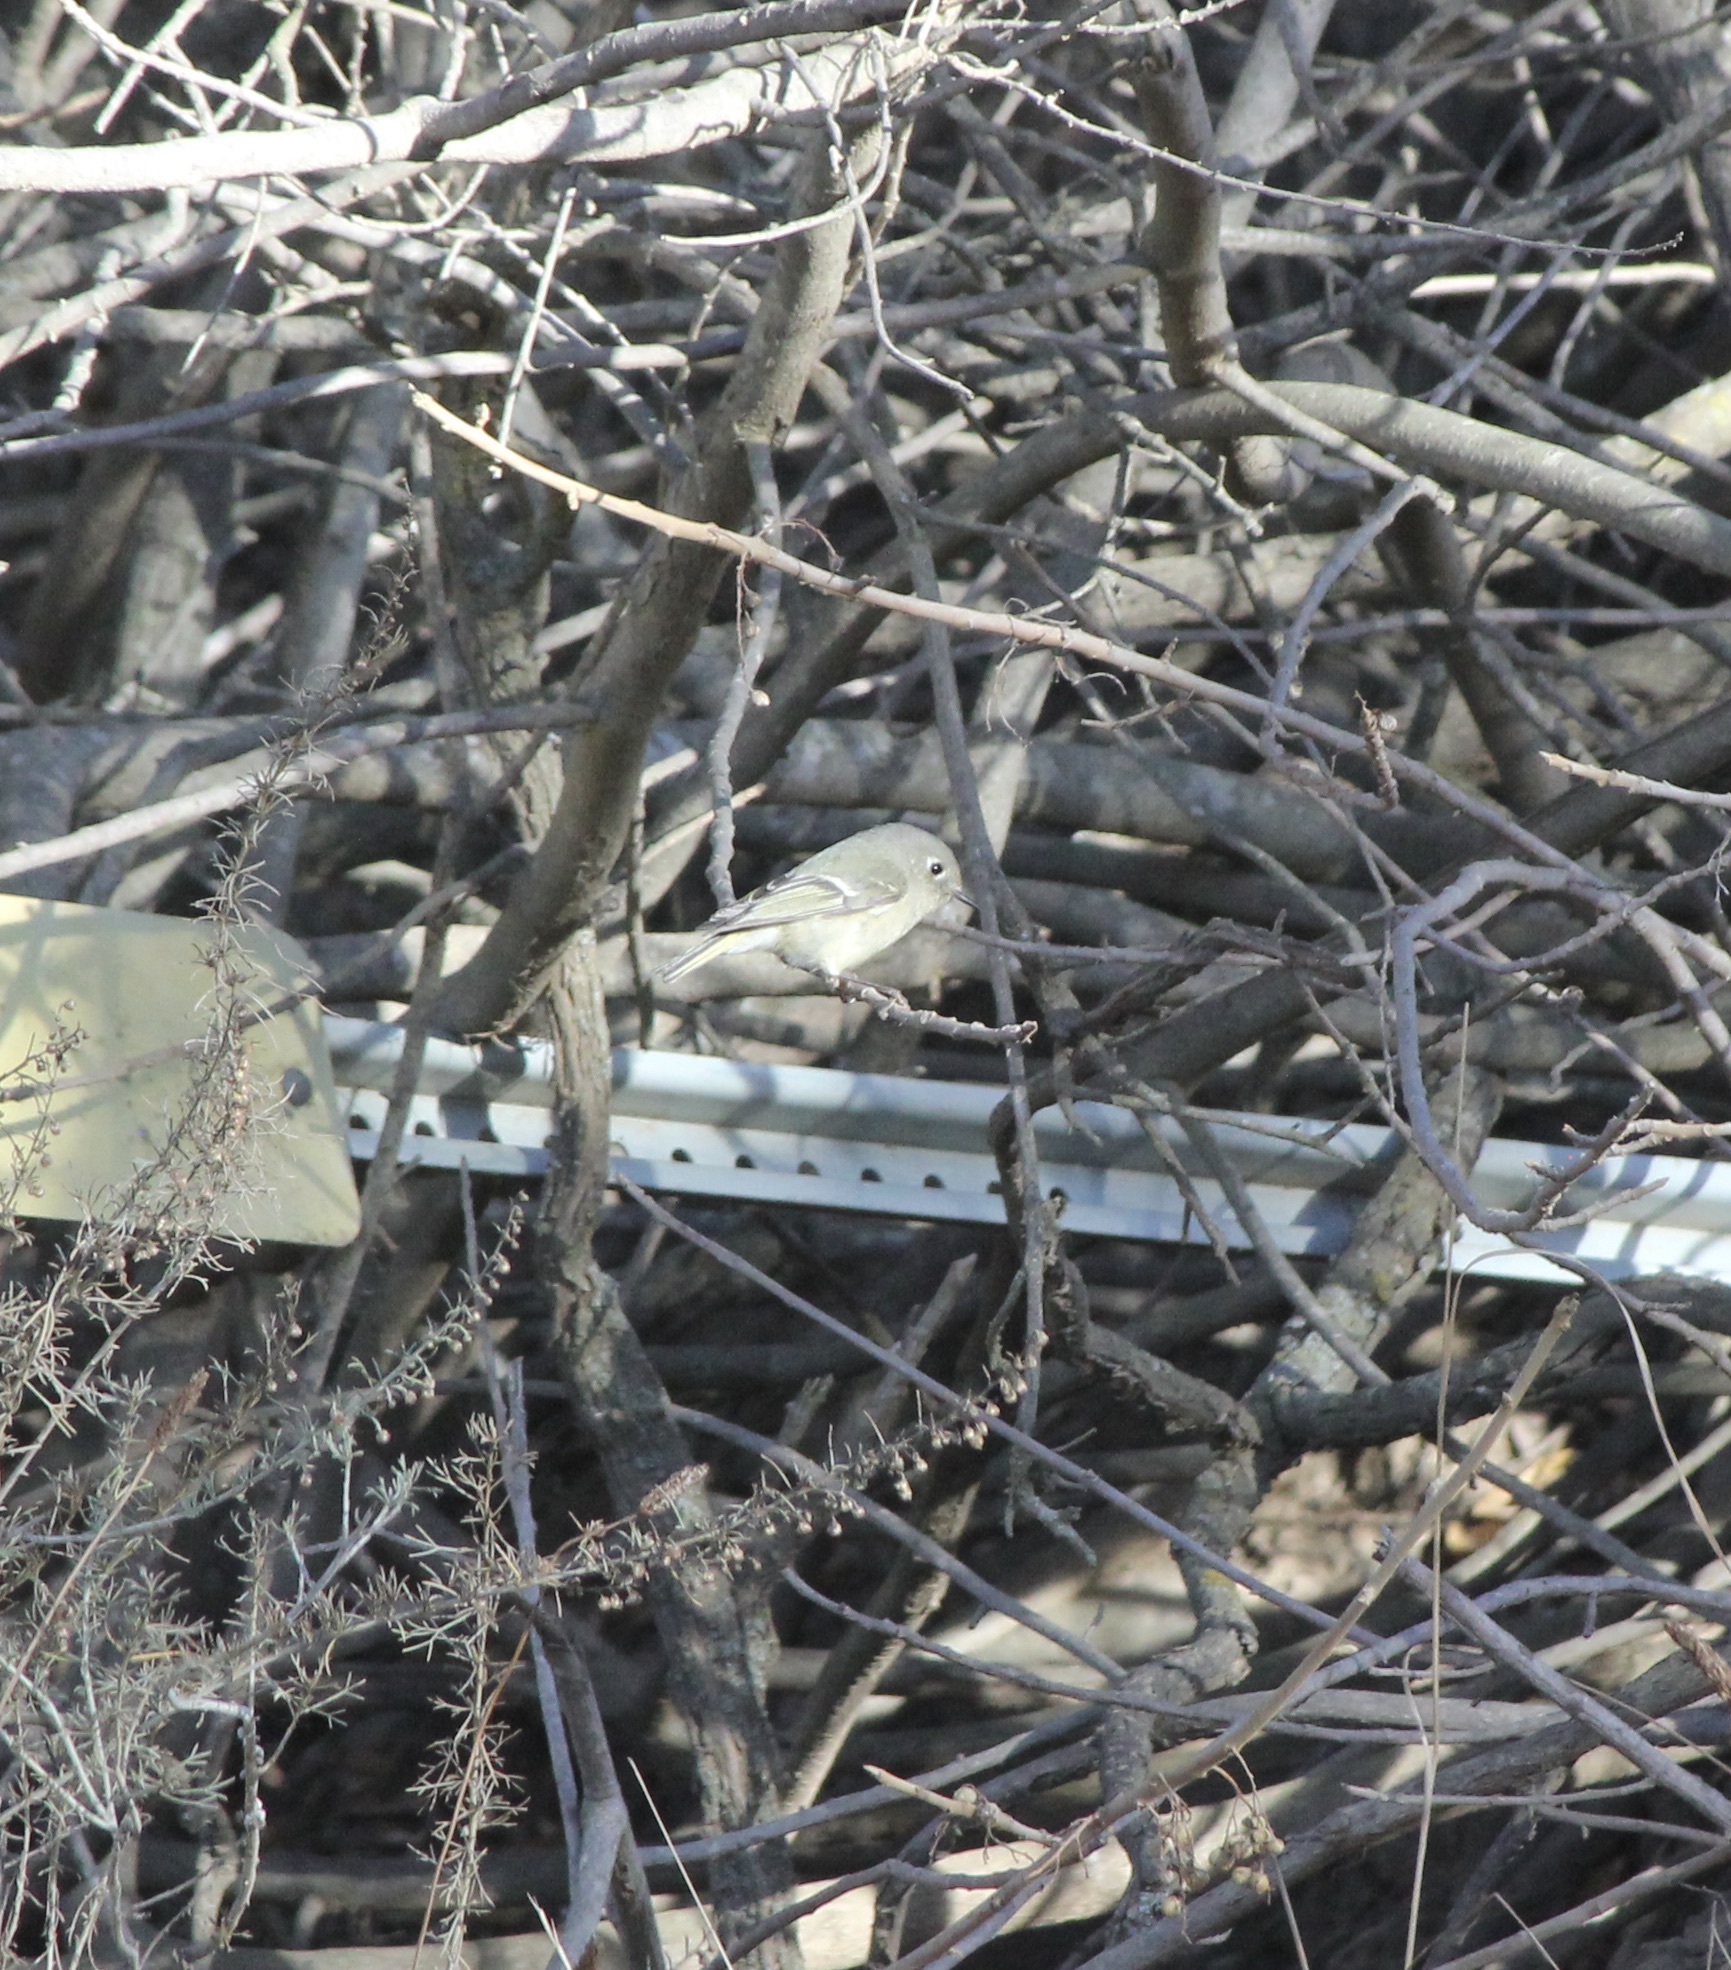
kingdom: Animalia
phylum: Chordata
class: Aves
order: Passeriformes
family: Regulidae
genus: Regulus
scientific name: Regulus calendula
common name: Ruby-crowned kinglet
